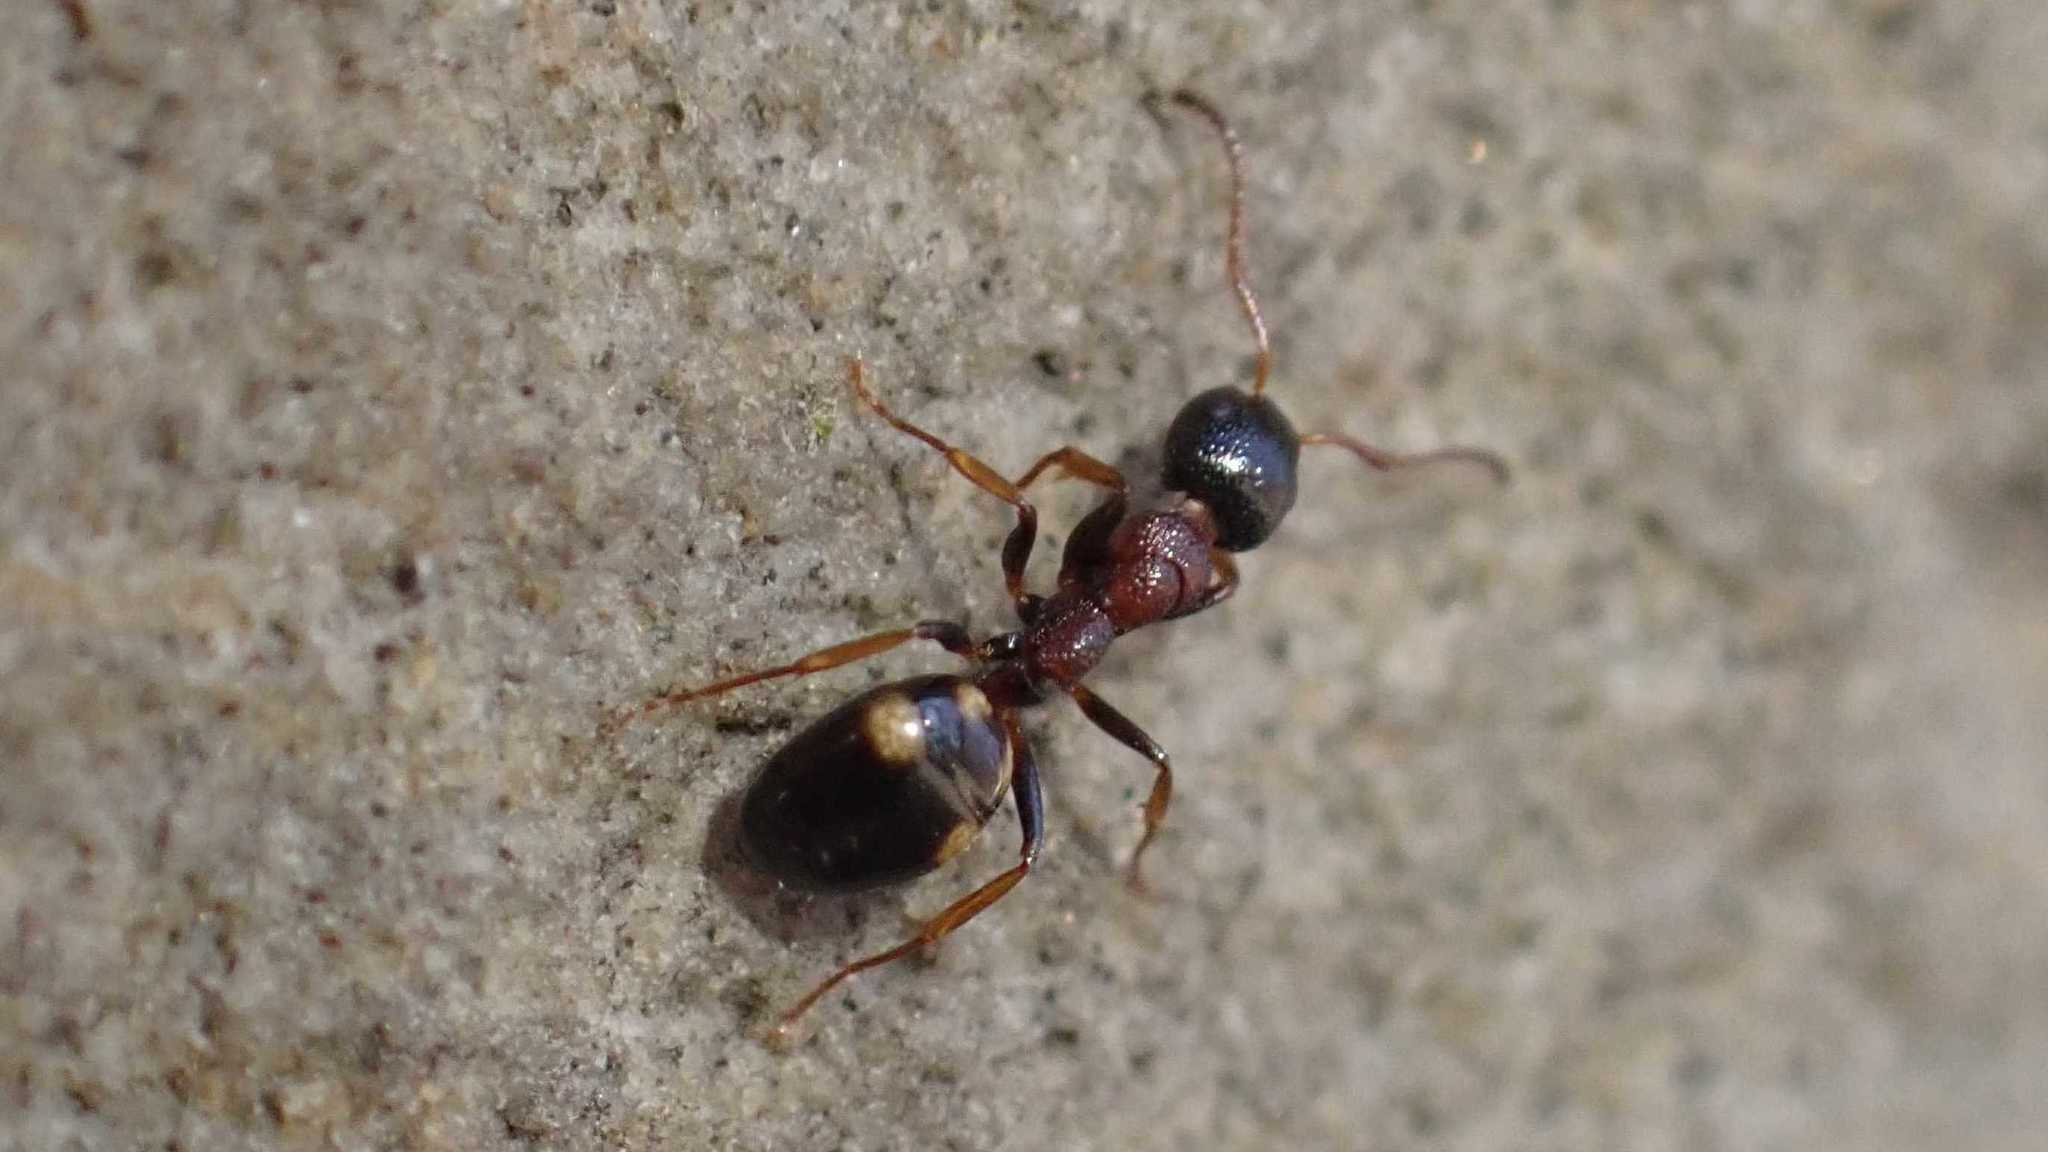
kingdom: Animalia
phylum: Arthropoda
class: Insecta
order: Hymenoptera
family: Formicidae
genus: Dolichoderus
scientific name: Dolichoderus quadripunctatus
